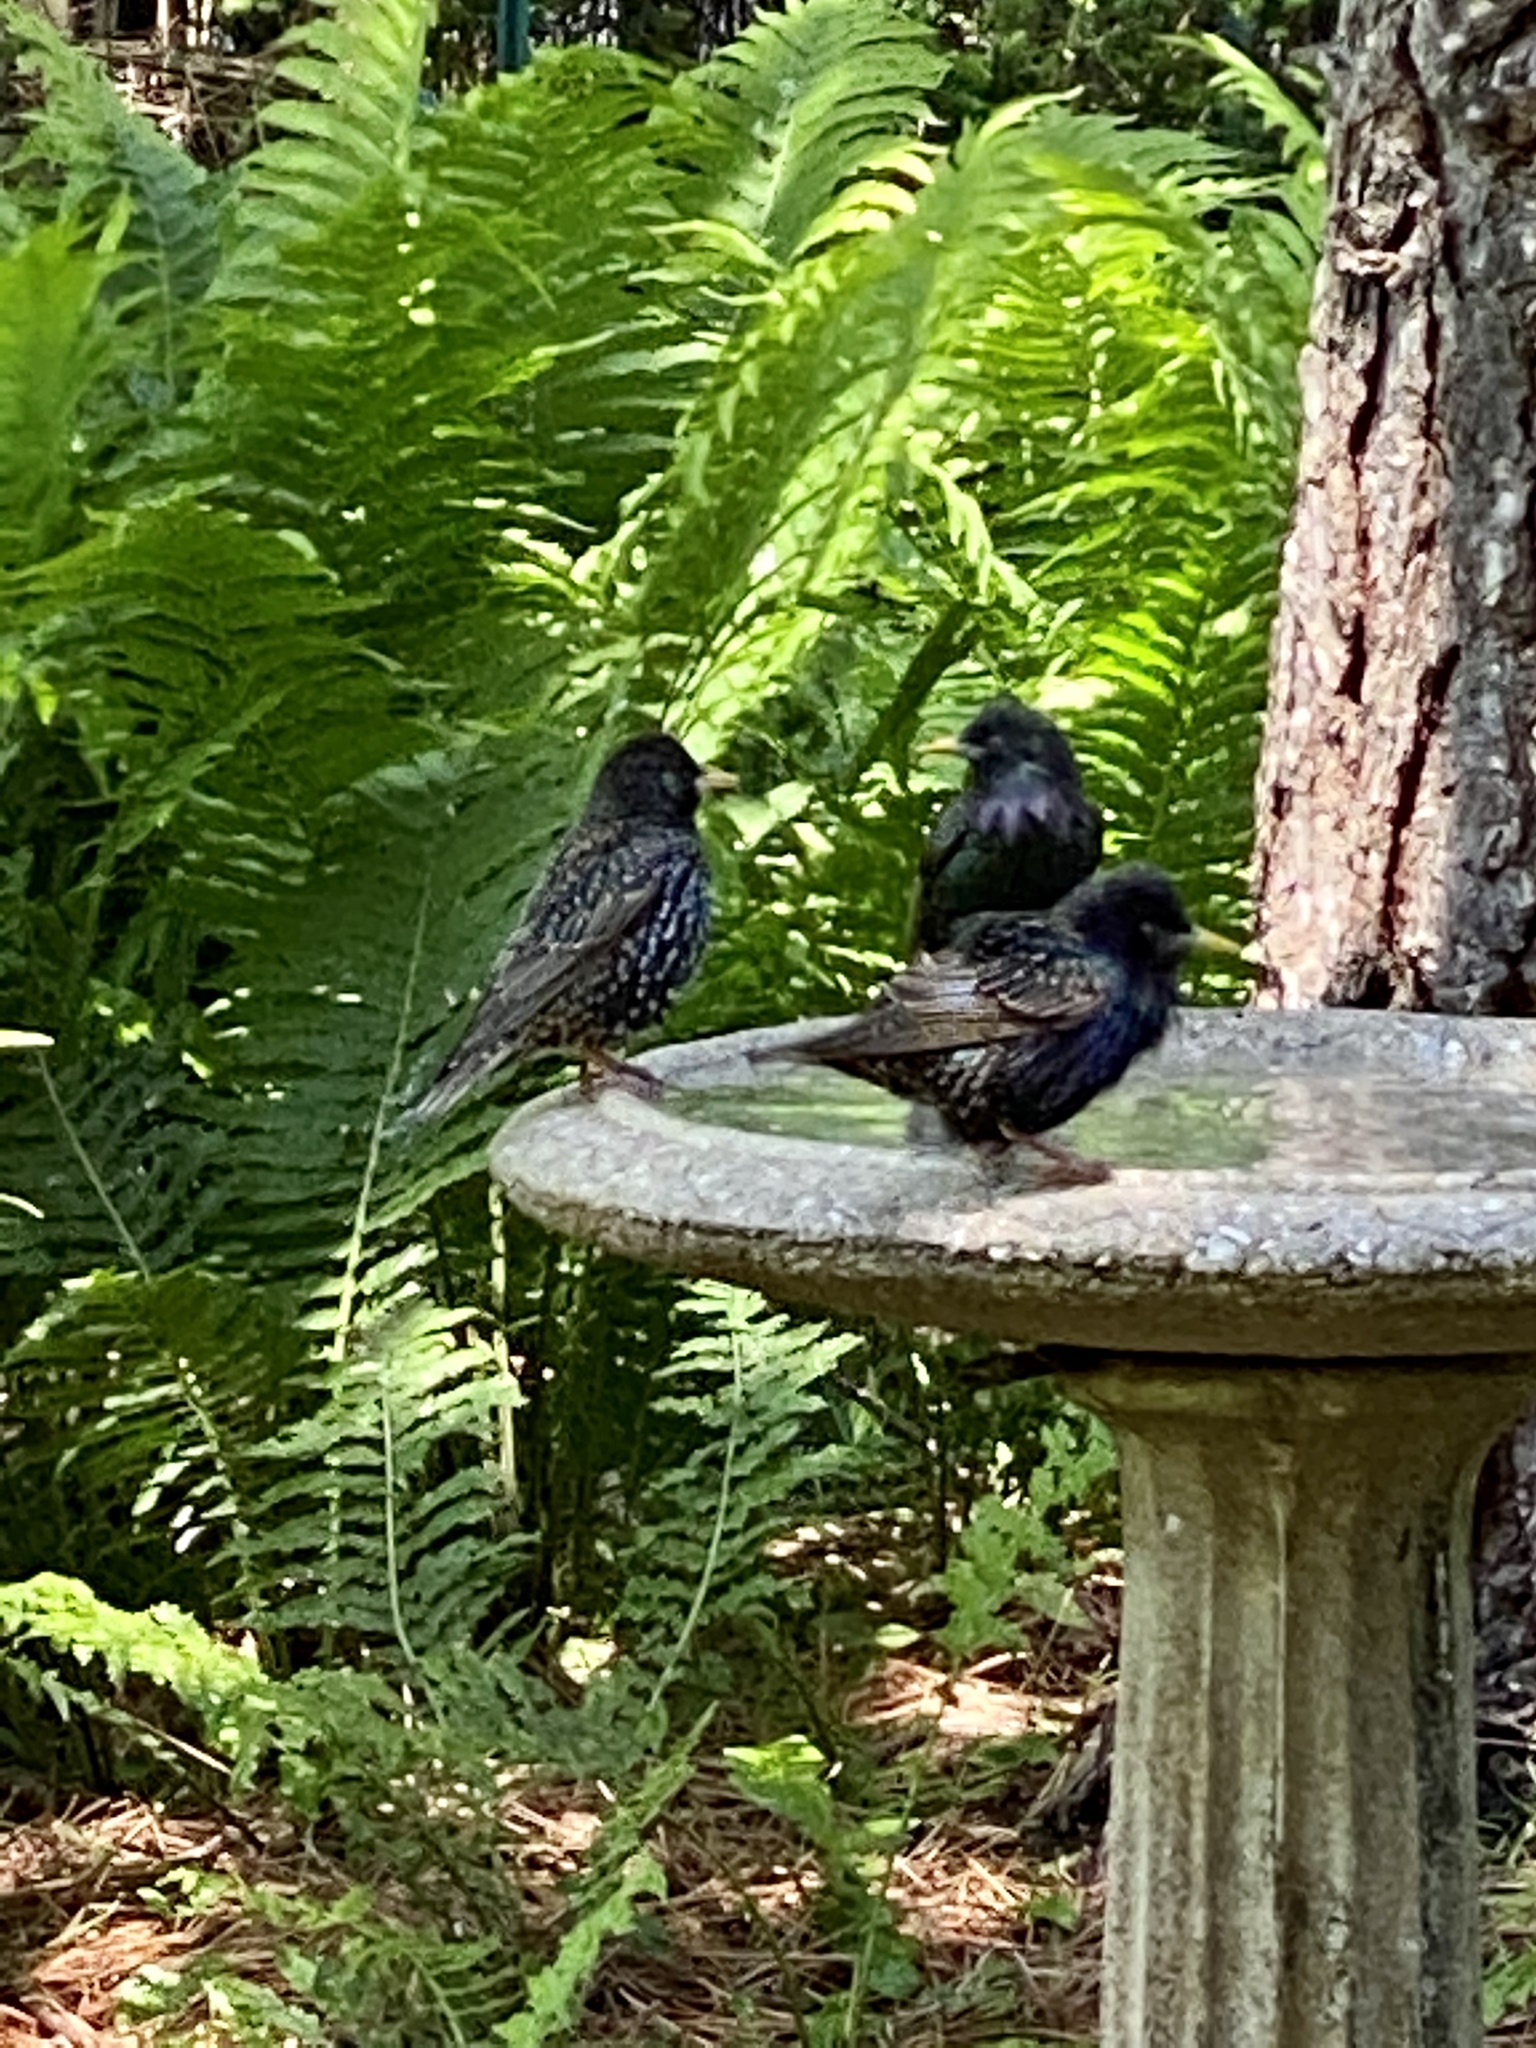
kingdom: Animalia
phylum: Chordata
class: Aves
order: Passeriformes
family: Sturnidae
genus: Sturnus
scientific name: Sturnus vulgaris
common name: Common starling
